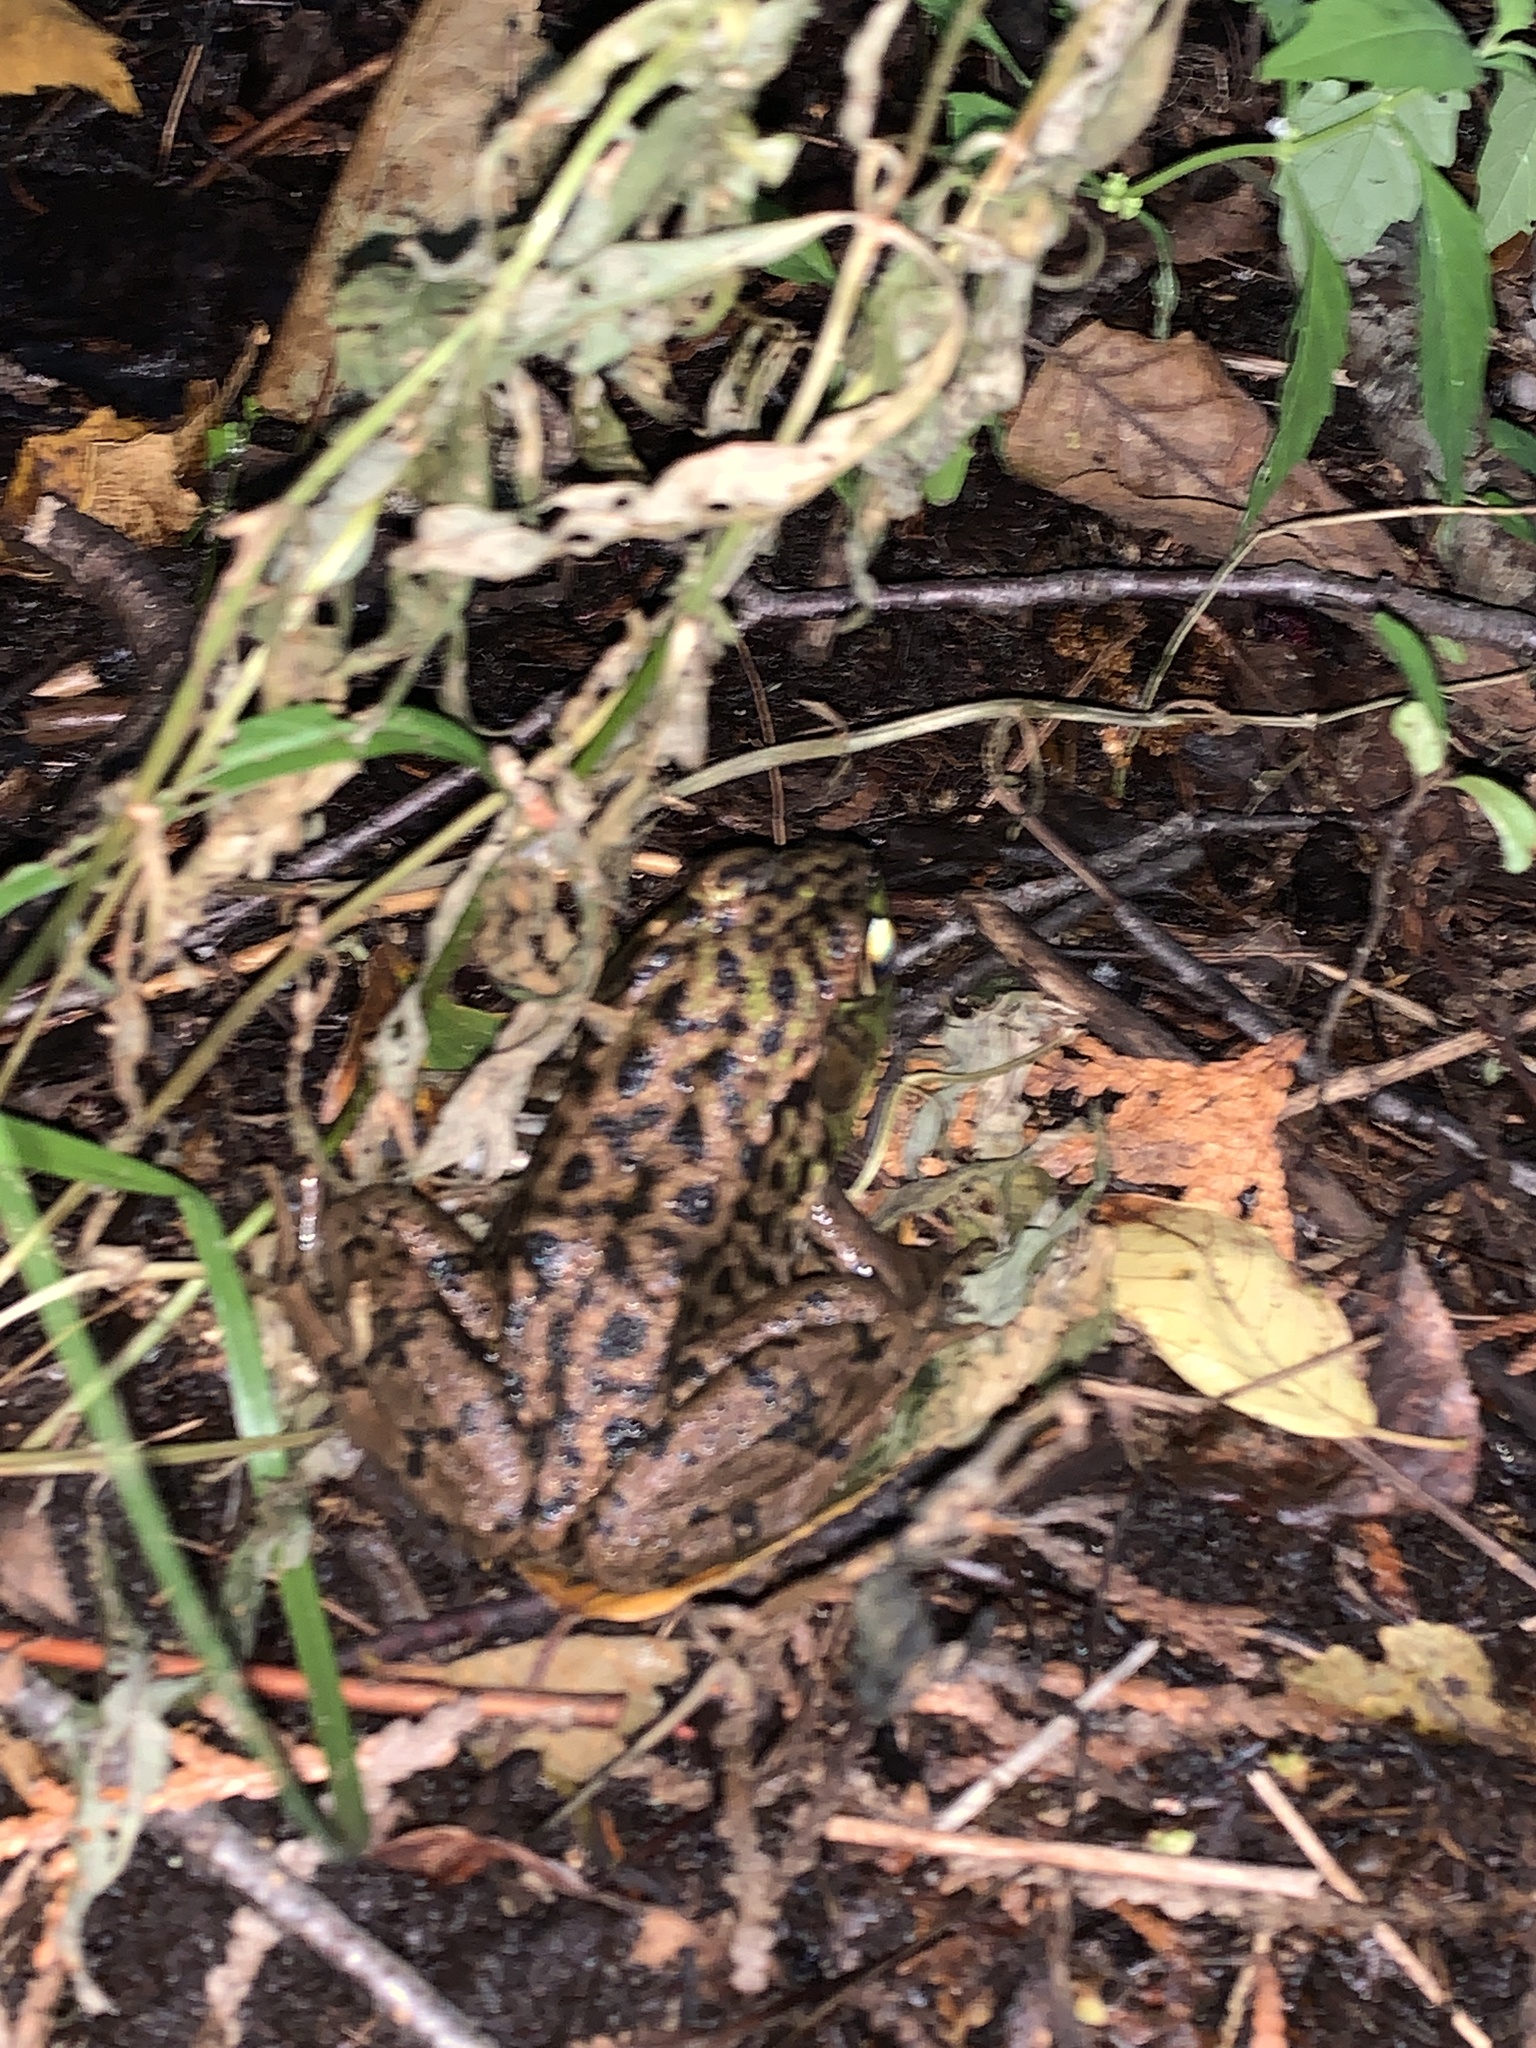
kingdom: Animalia
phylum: Chordata
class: Amphibia
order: Anura
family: Ranidae
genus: Lithobates
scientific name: Lithobates clamitans
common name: Green frog
